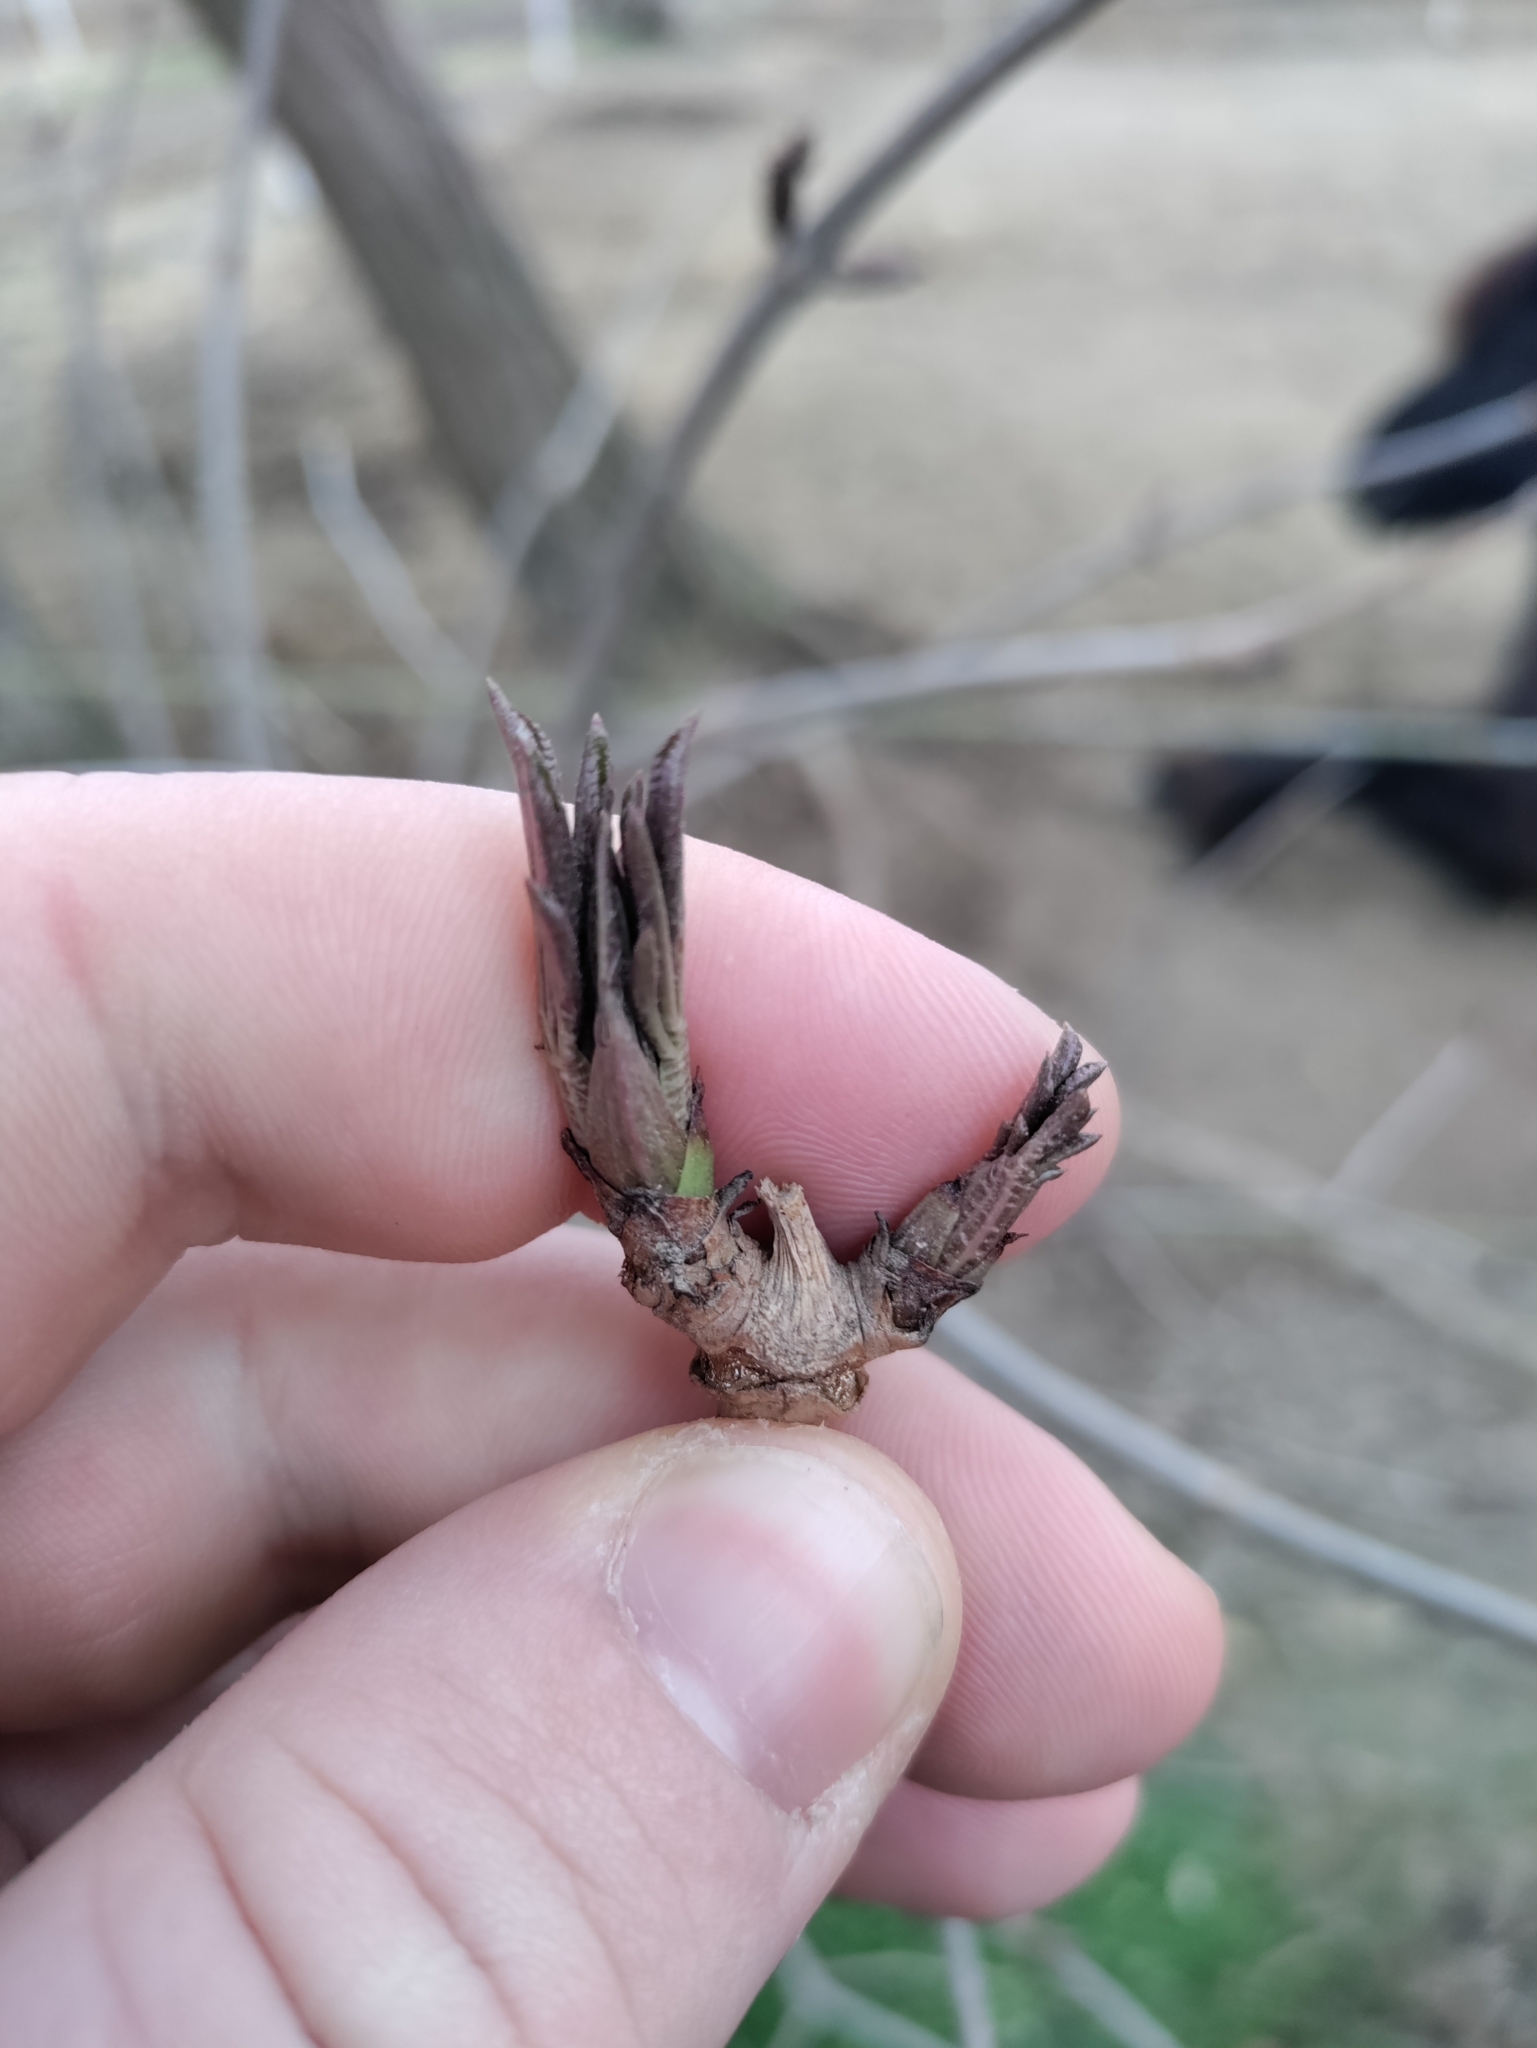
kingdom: Plantae
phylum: Tracheophyta
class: Magnoliopsida
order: Dipsacales
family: Viburnaceae
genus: Sambucus
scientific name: Sambucus nigra
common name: Elder
